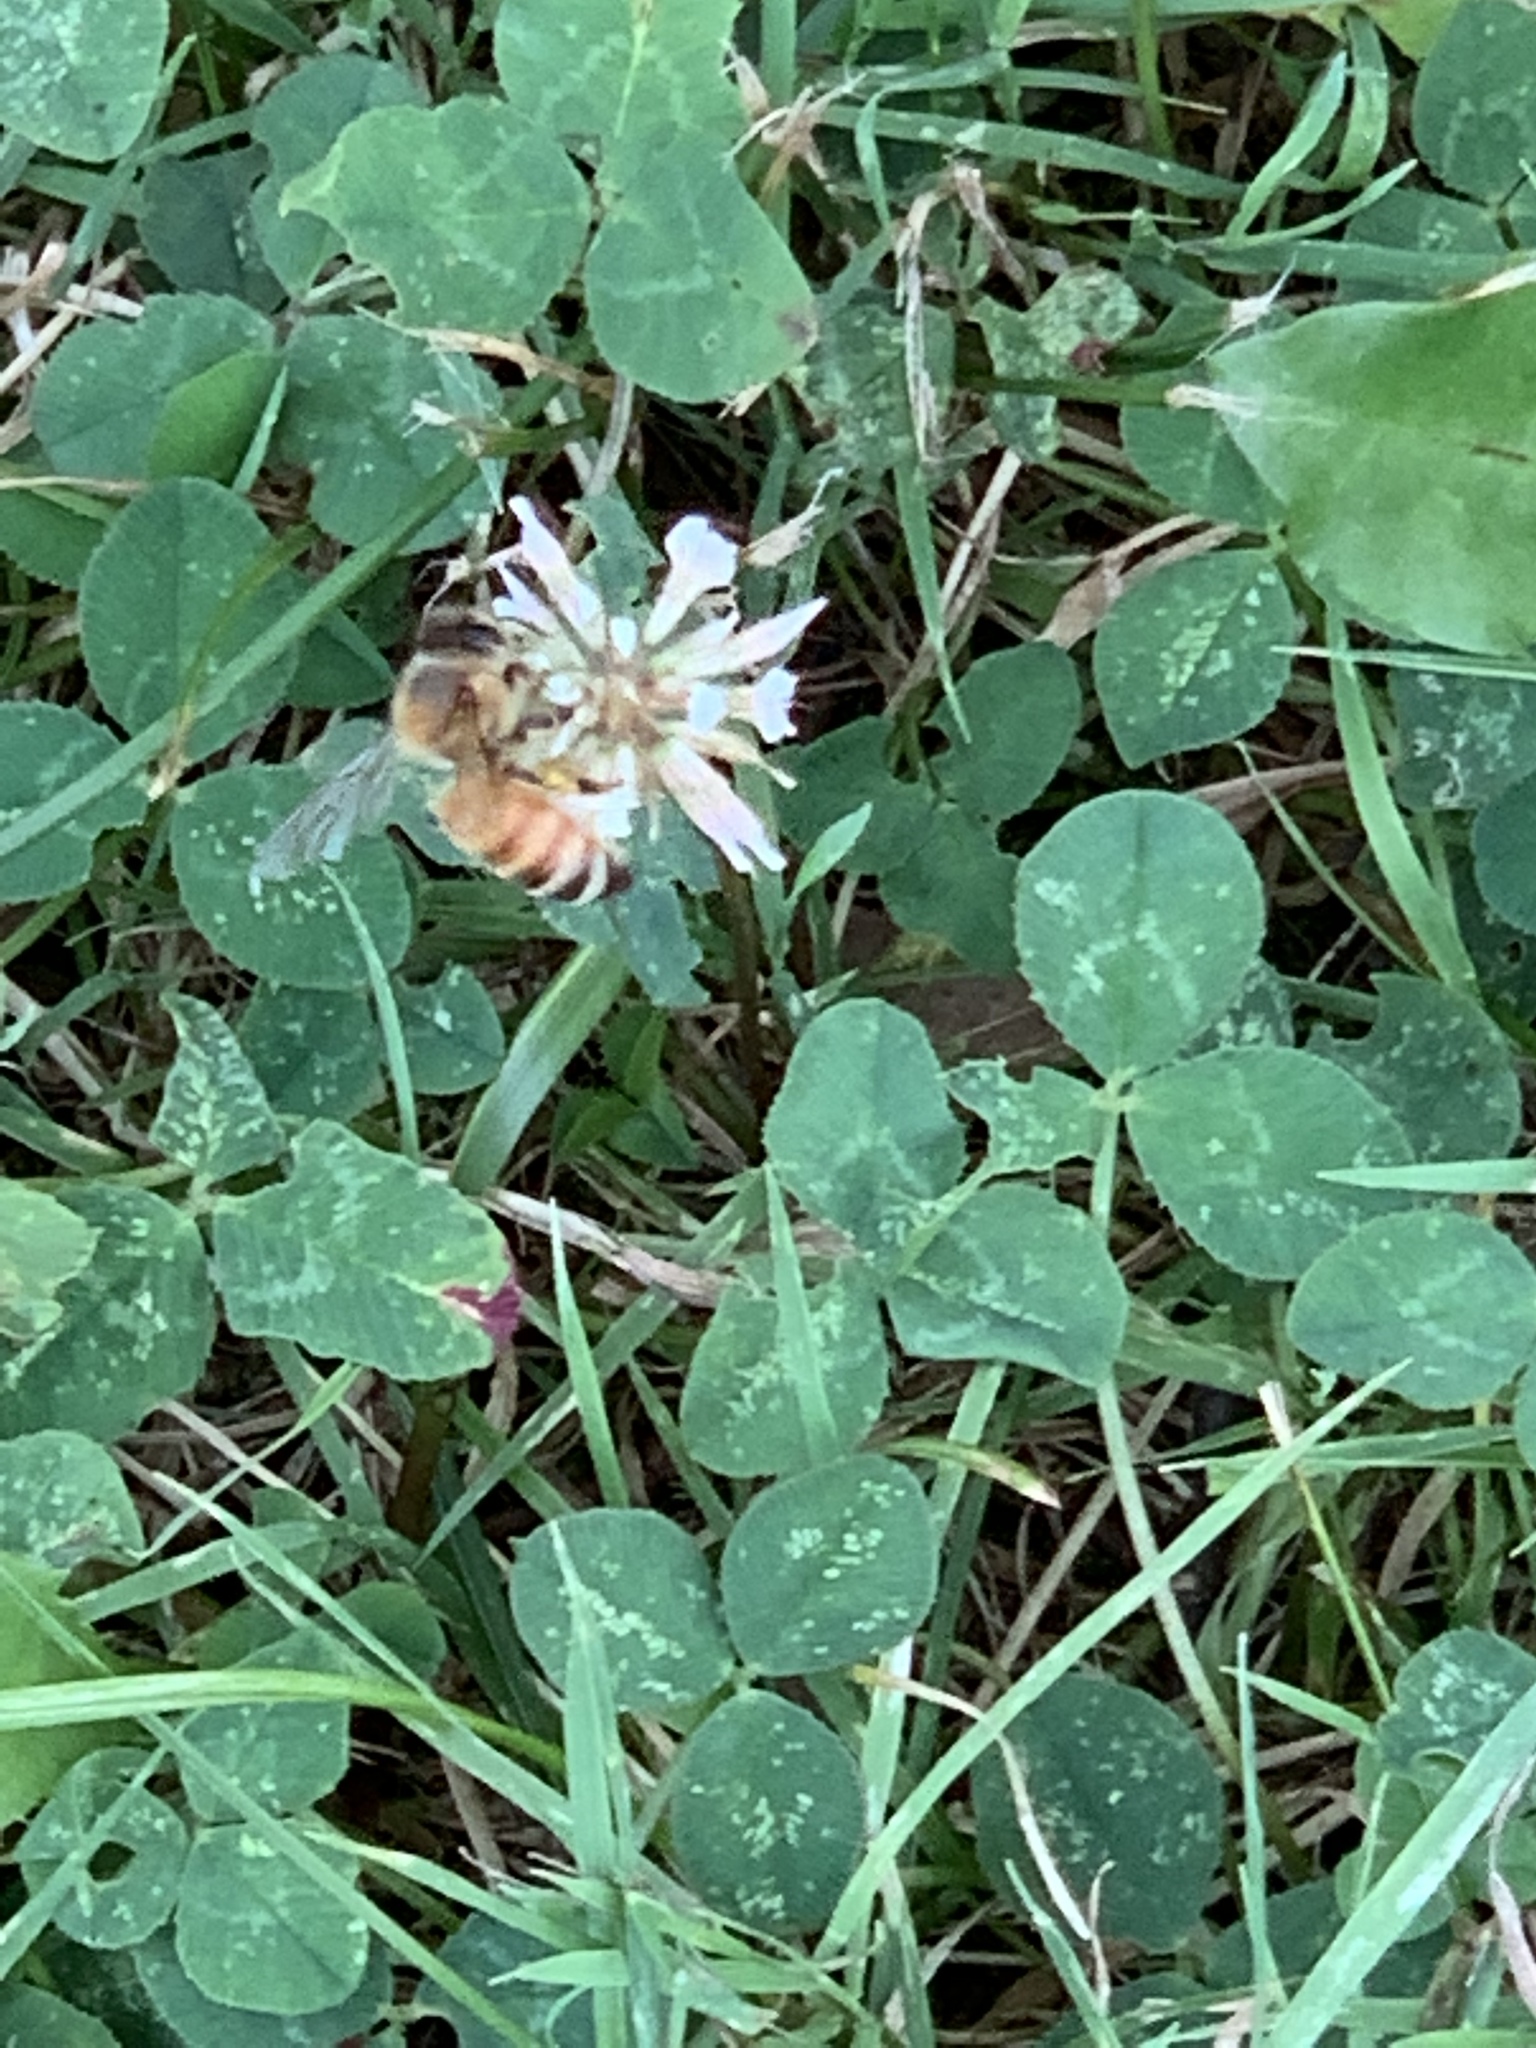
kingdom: Animalia
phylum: Arthropoda
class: Insecta
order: Hymenoptera
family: Apidae
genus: Apis
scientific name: Apis mellifera
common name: Honey bee
